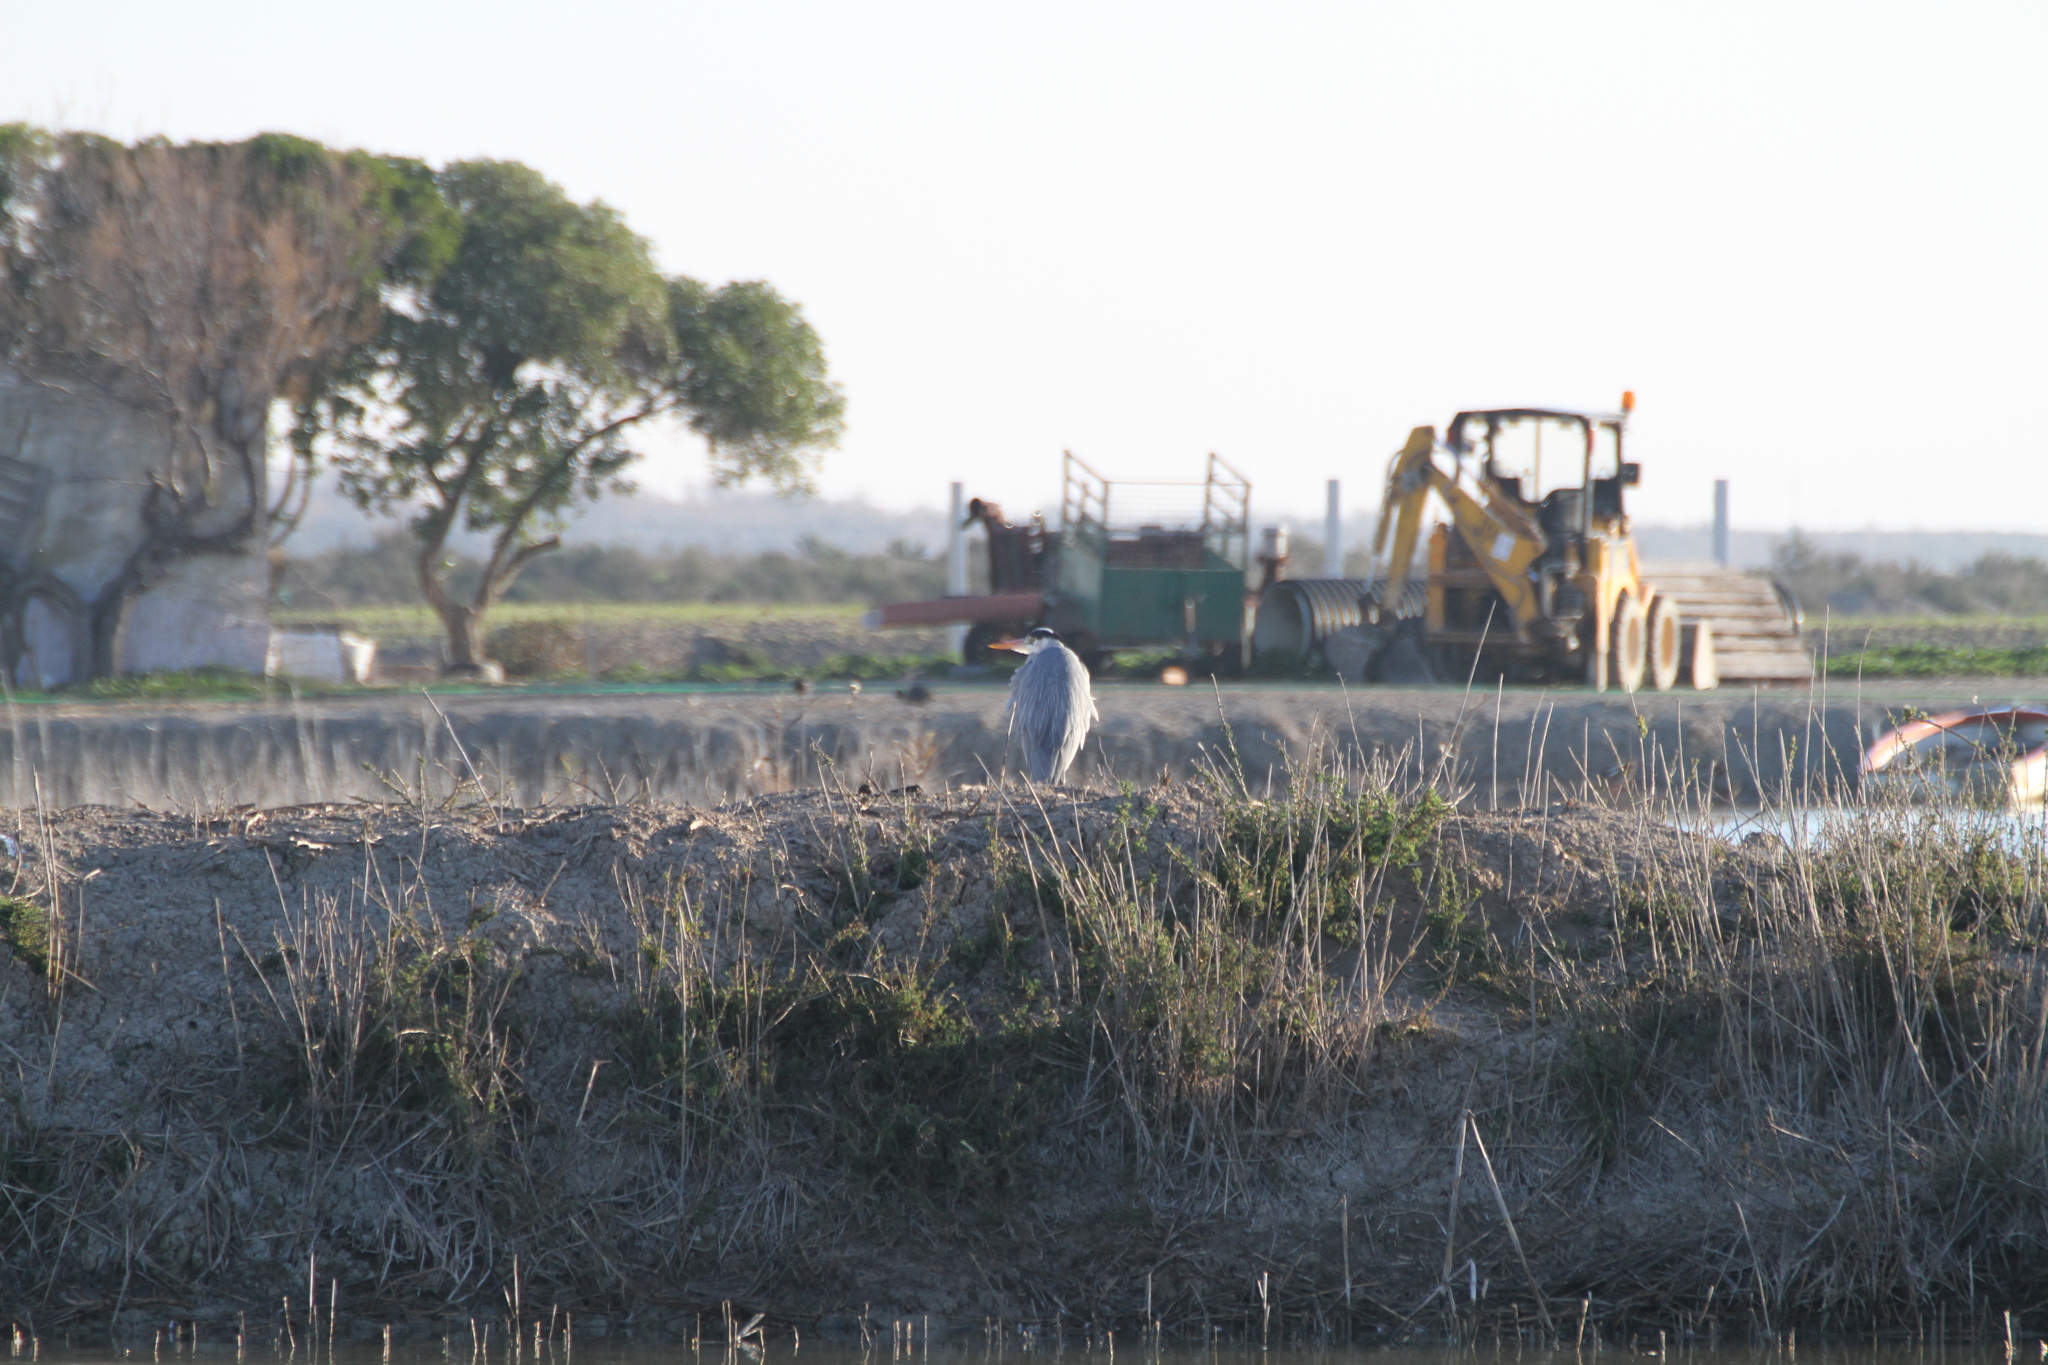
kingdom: Animalia
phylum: Chordata
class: Aves
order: Pelecaniformes
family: Ardeidae
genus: Ardea
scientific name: Ardea cinerea
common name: Grey heron
